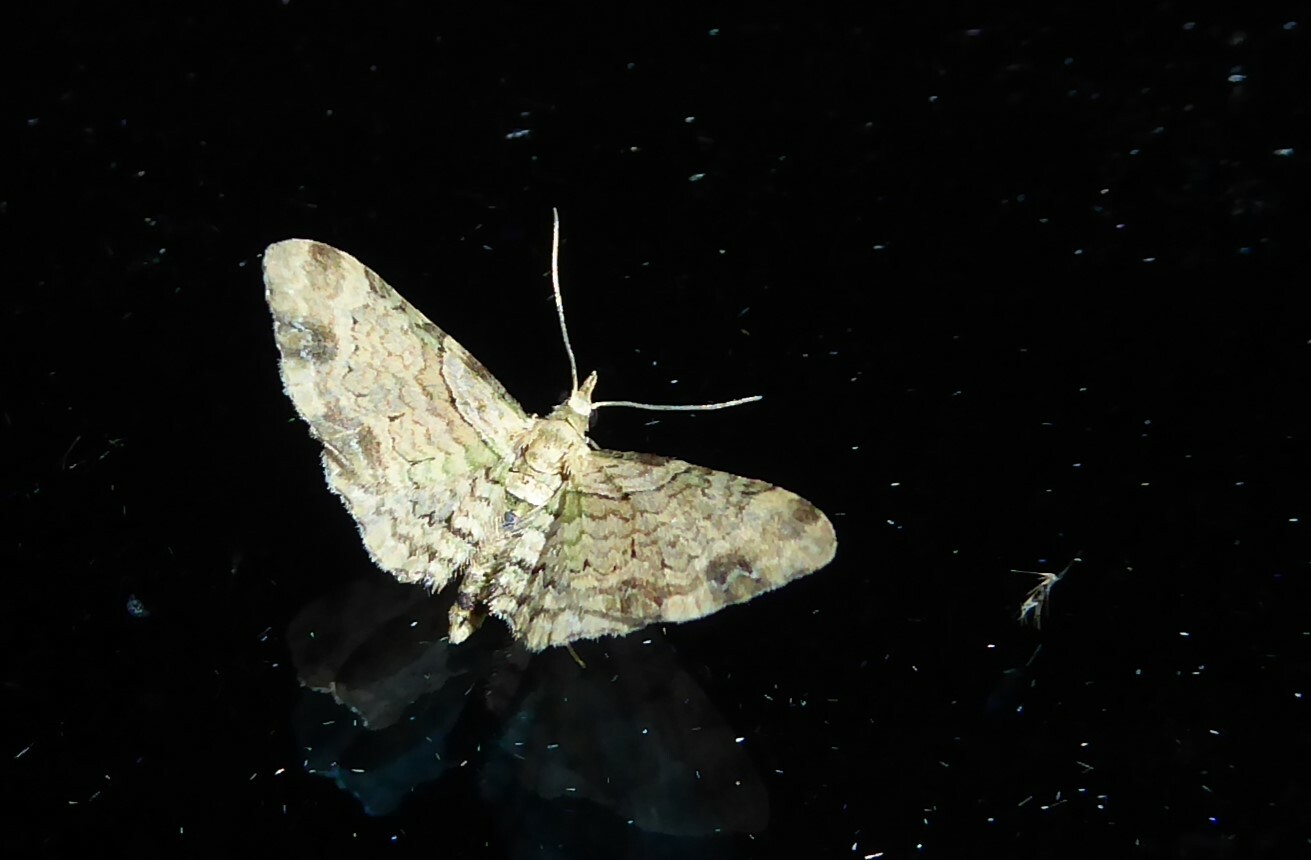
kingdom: Animalia
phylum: Arthropoda
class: Insecta
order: Lepidoptera
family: Geometridae
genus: Chloroclystis
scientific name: Chloroclystis
